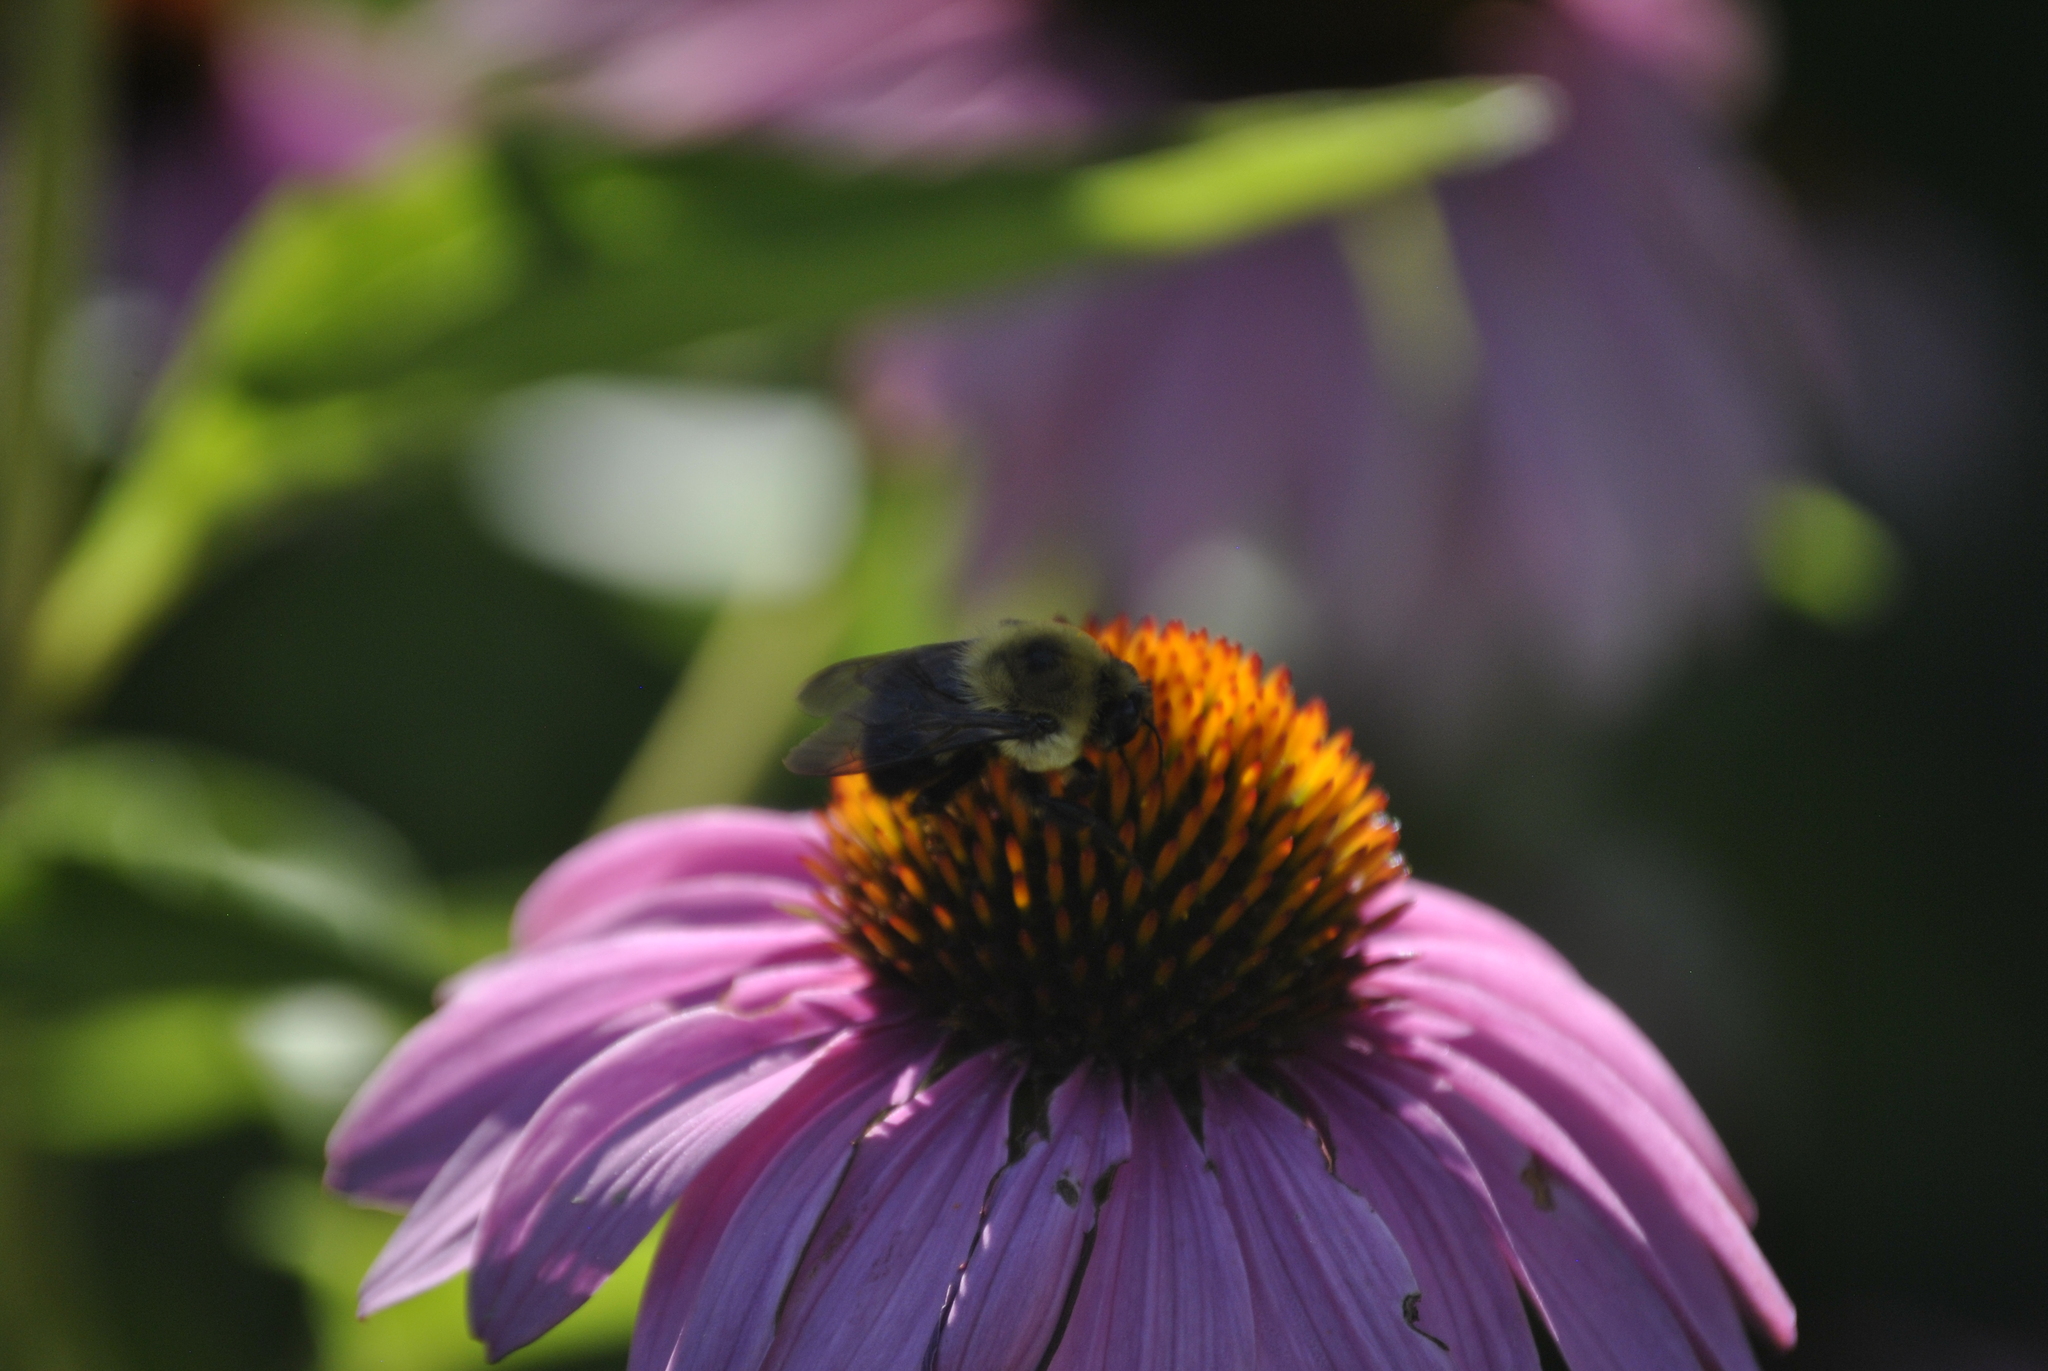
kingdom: Animalia
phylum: Arthropoda
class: Insecta
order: Hymenoptera
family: Apidae
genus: Bombus
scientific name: Bombus griseocollis
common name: Brown-belted bumble bee
